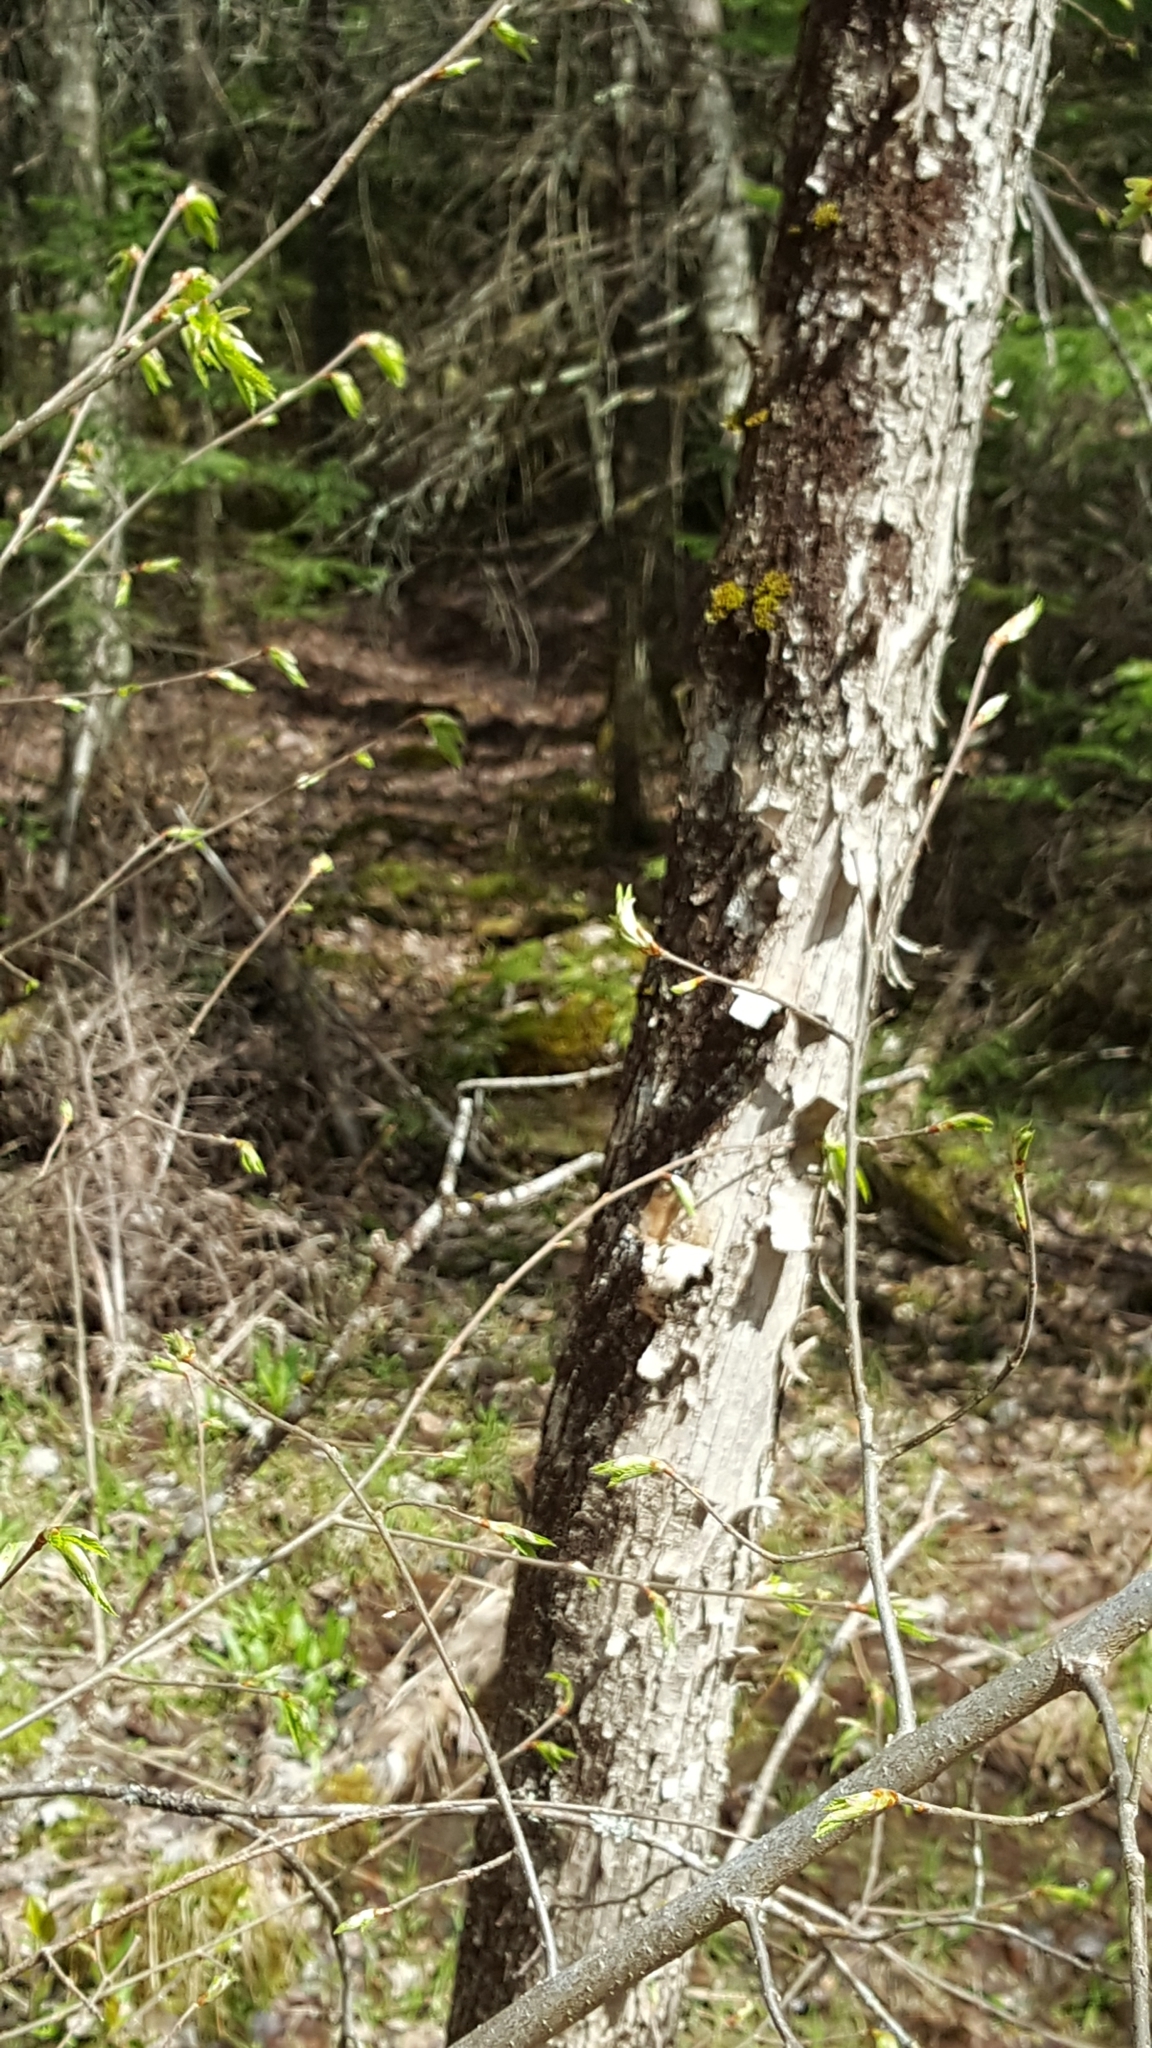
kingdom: Plantae
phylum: Tracheophyta
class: Magnoliopsida
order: Fagales
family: Betulaceae
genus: Ostrya
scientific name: Ostrya virginiana
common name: Ironwood
